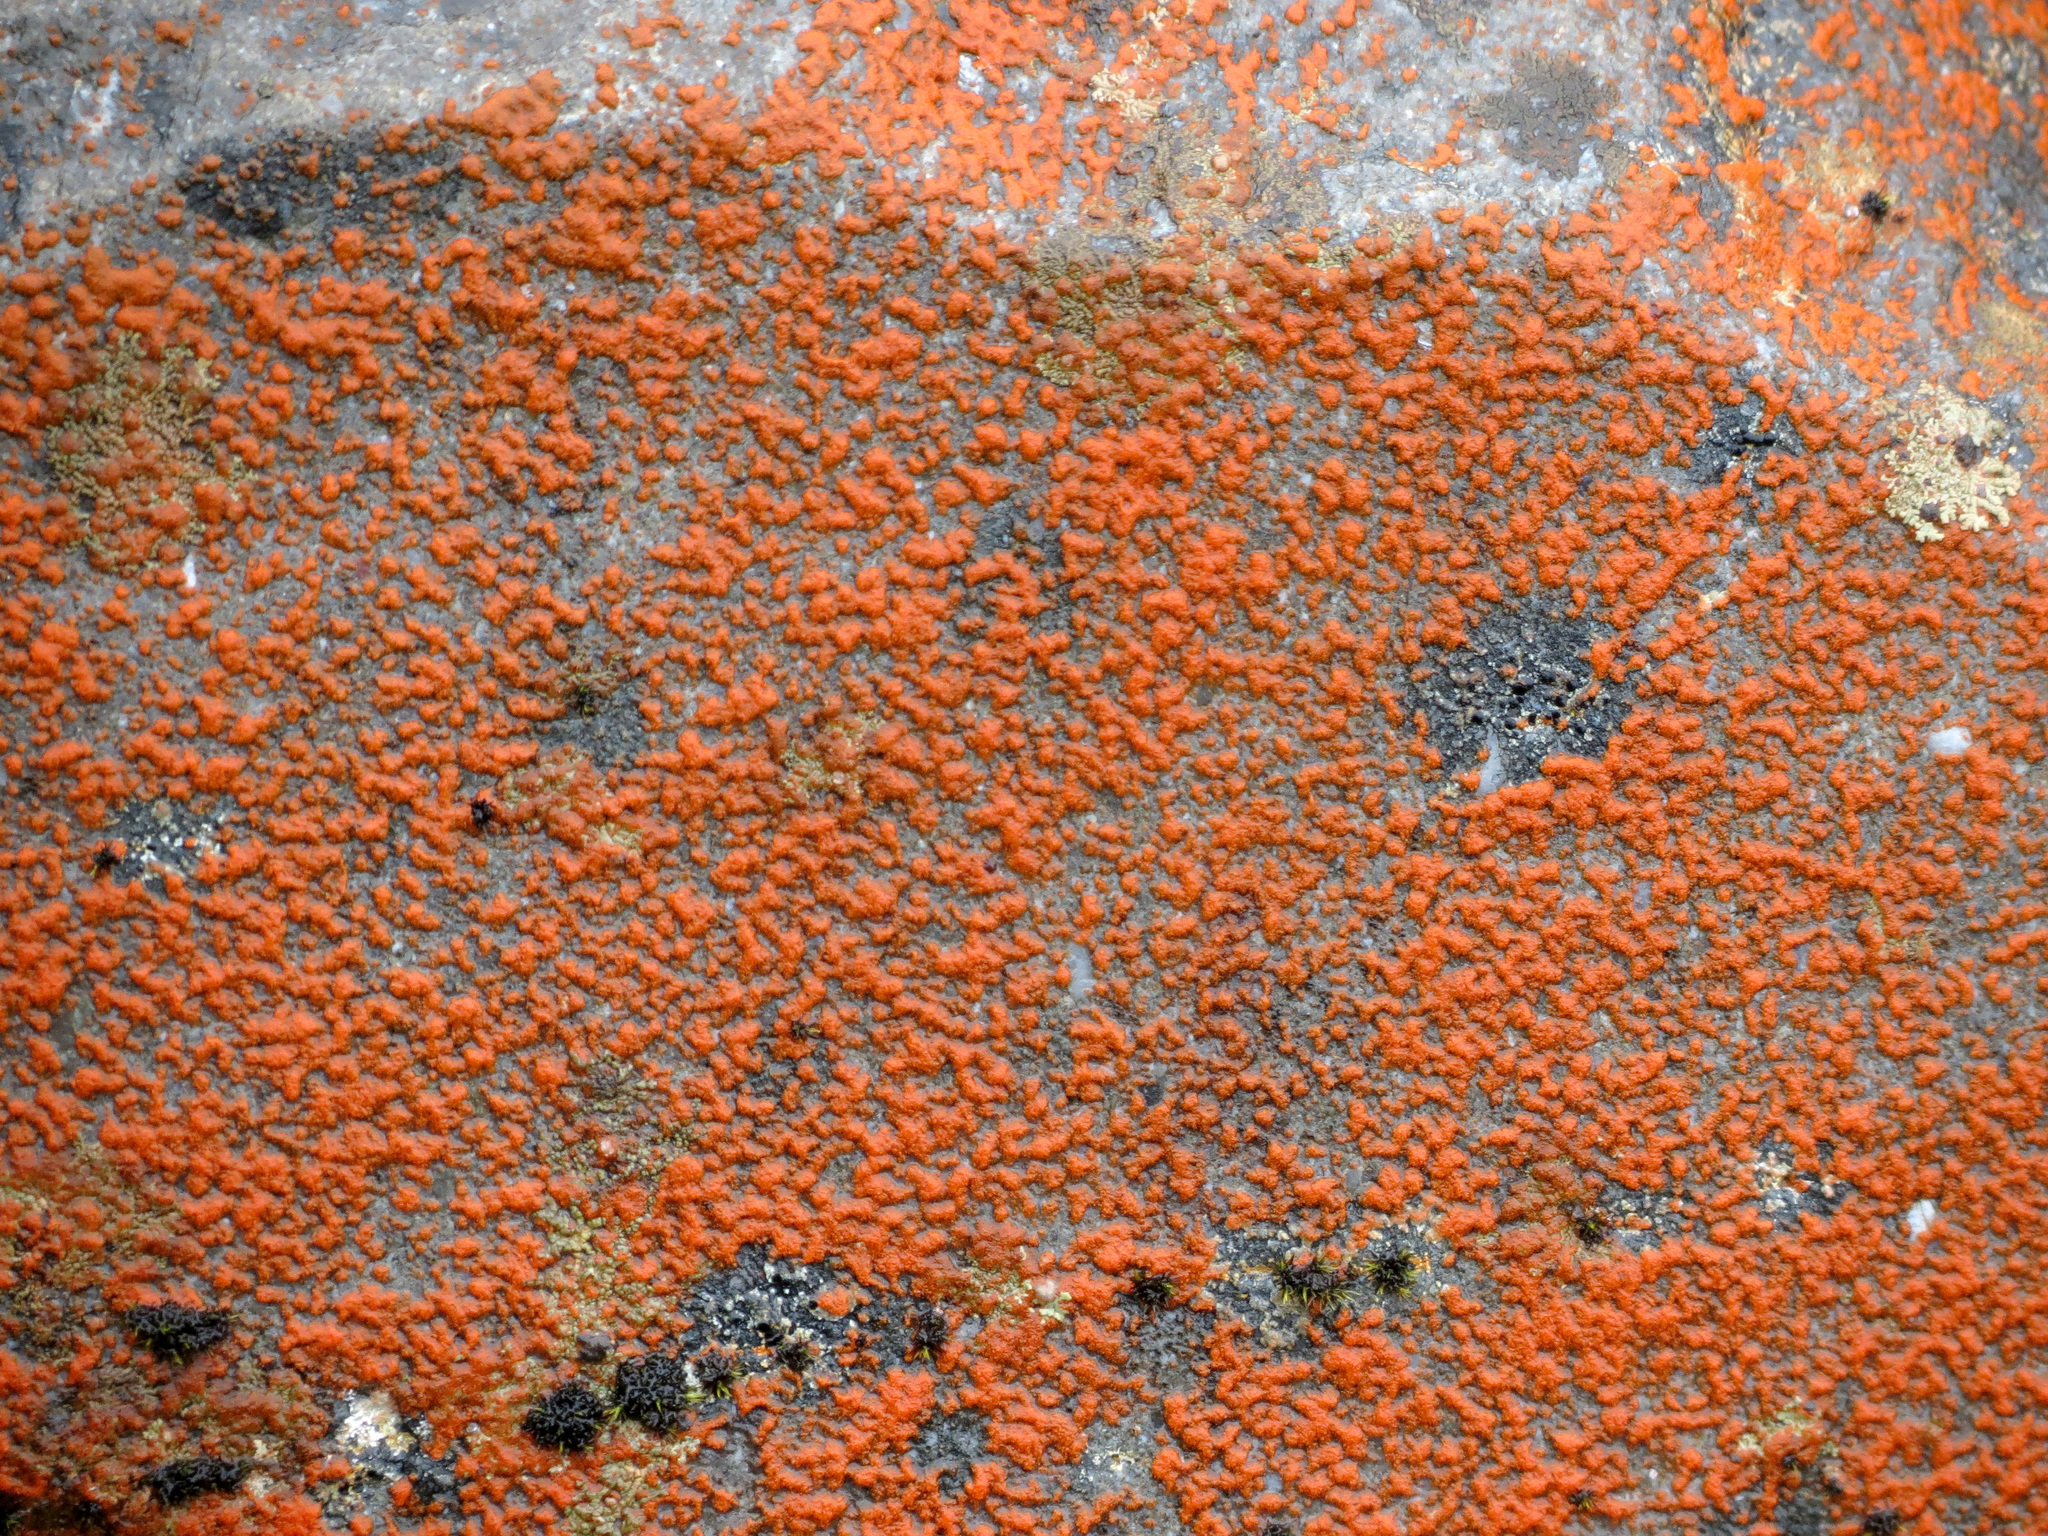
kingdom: Plantae
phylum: Chlorophyta
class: Ulvophyceae
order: Trentepohliales
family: Trentepohliaceae
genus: Trentepohlia
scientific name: Trentepohlia
